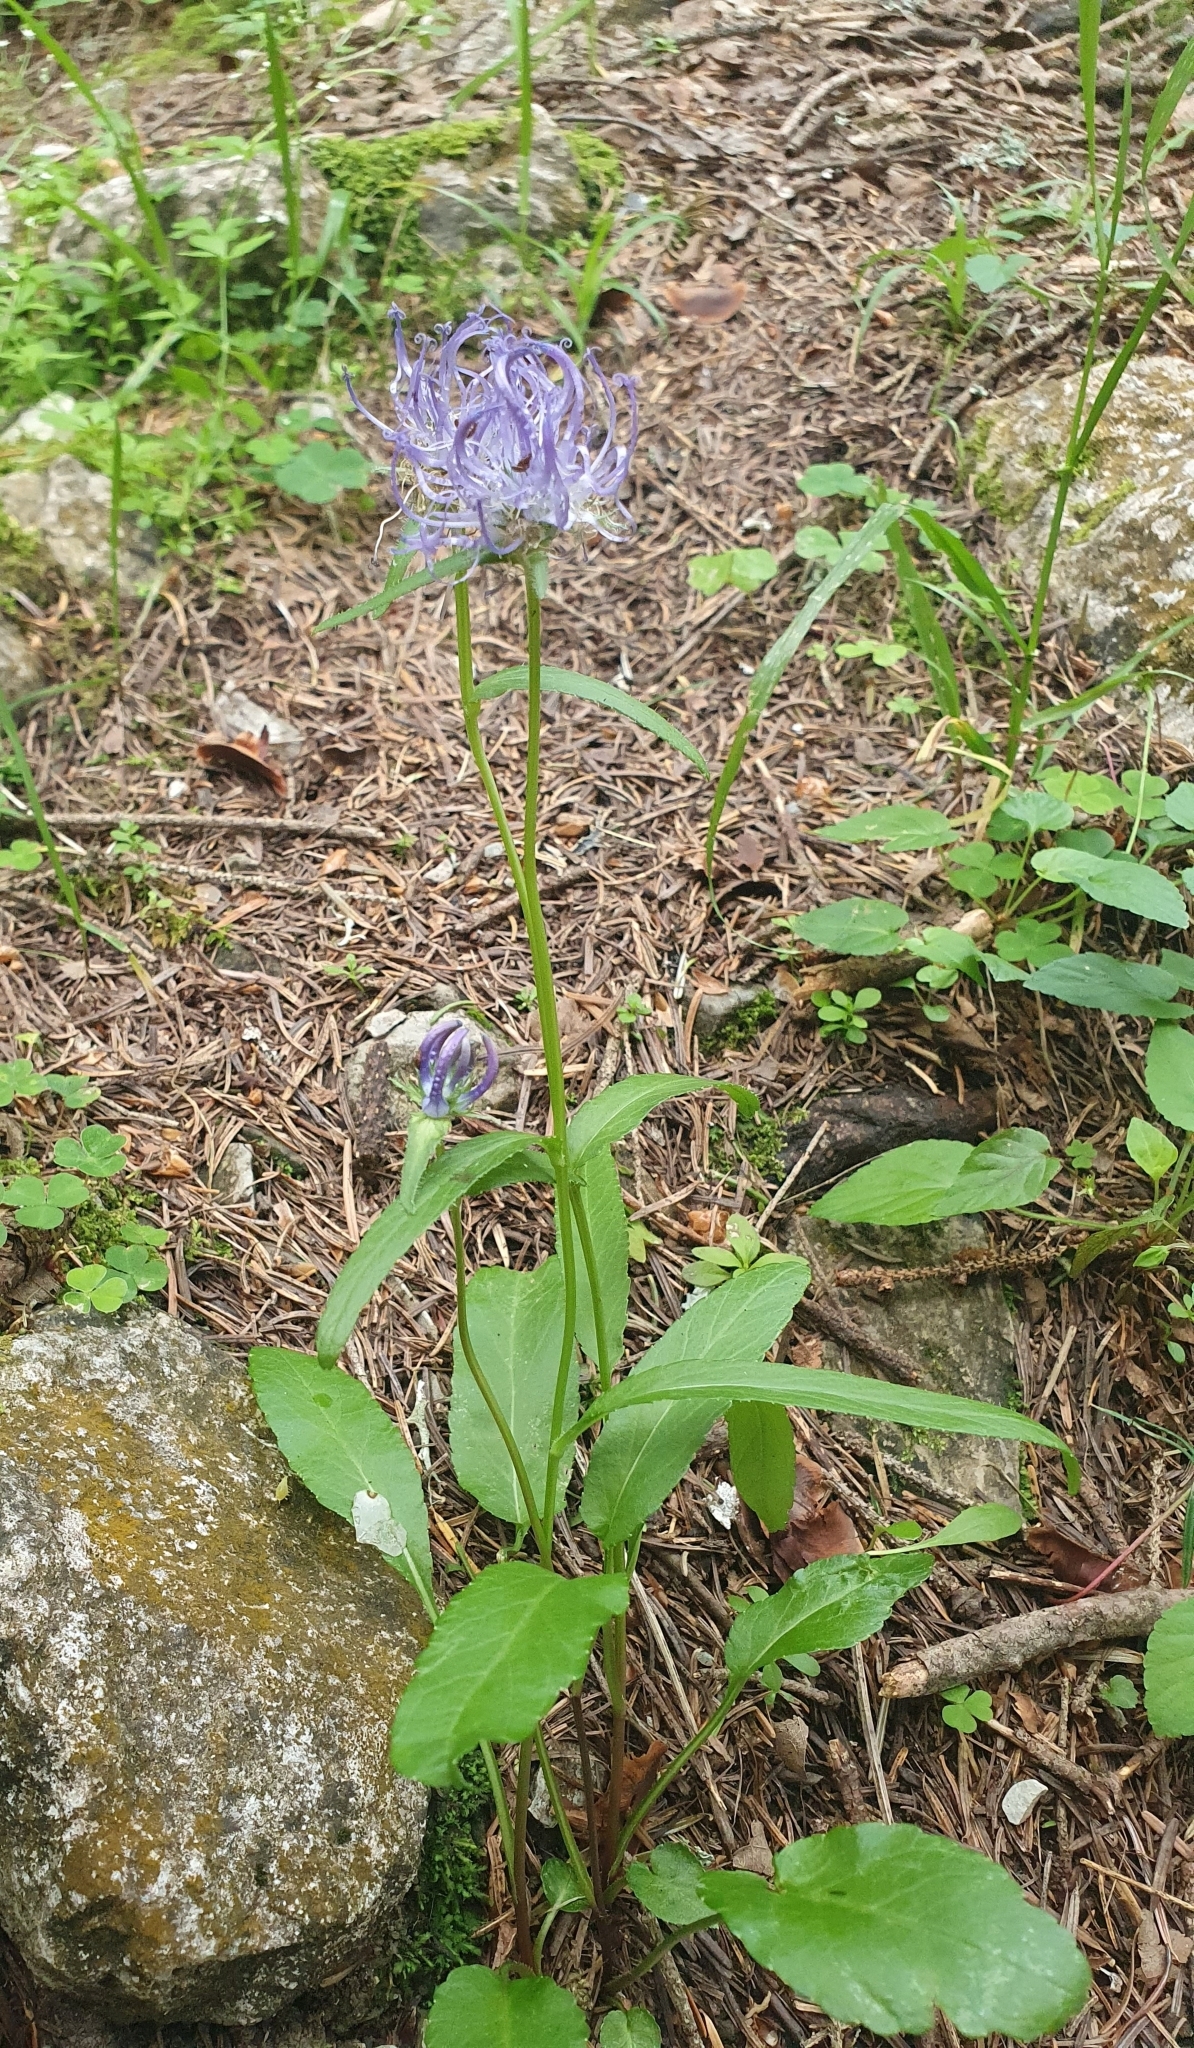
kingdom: Plantae
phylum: Tracheophyta
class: Magnoliopsida
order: Asterales
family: Campanulaceae
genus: Phyteuma
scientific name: Phyteuma orbiculare
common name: Round-headed rampion
